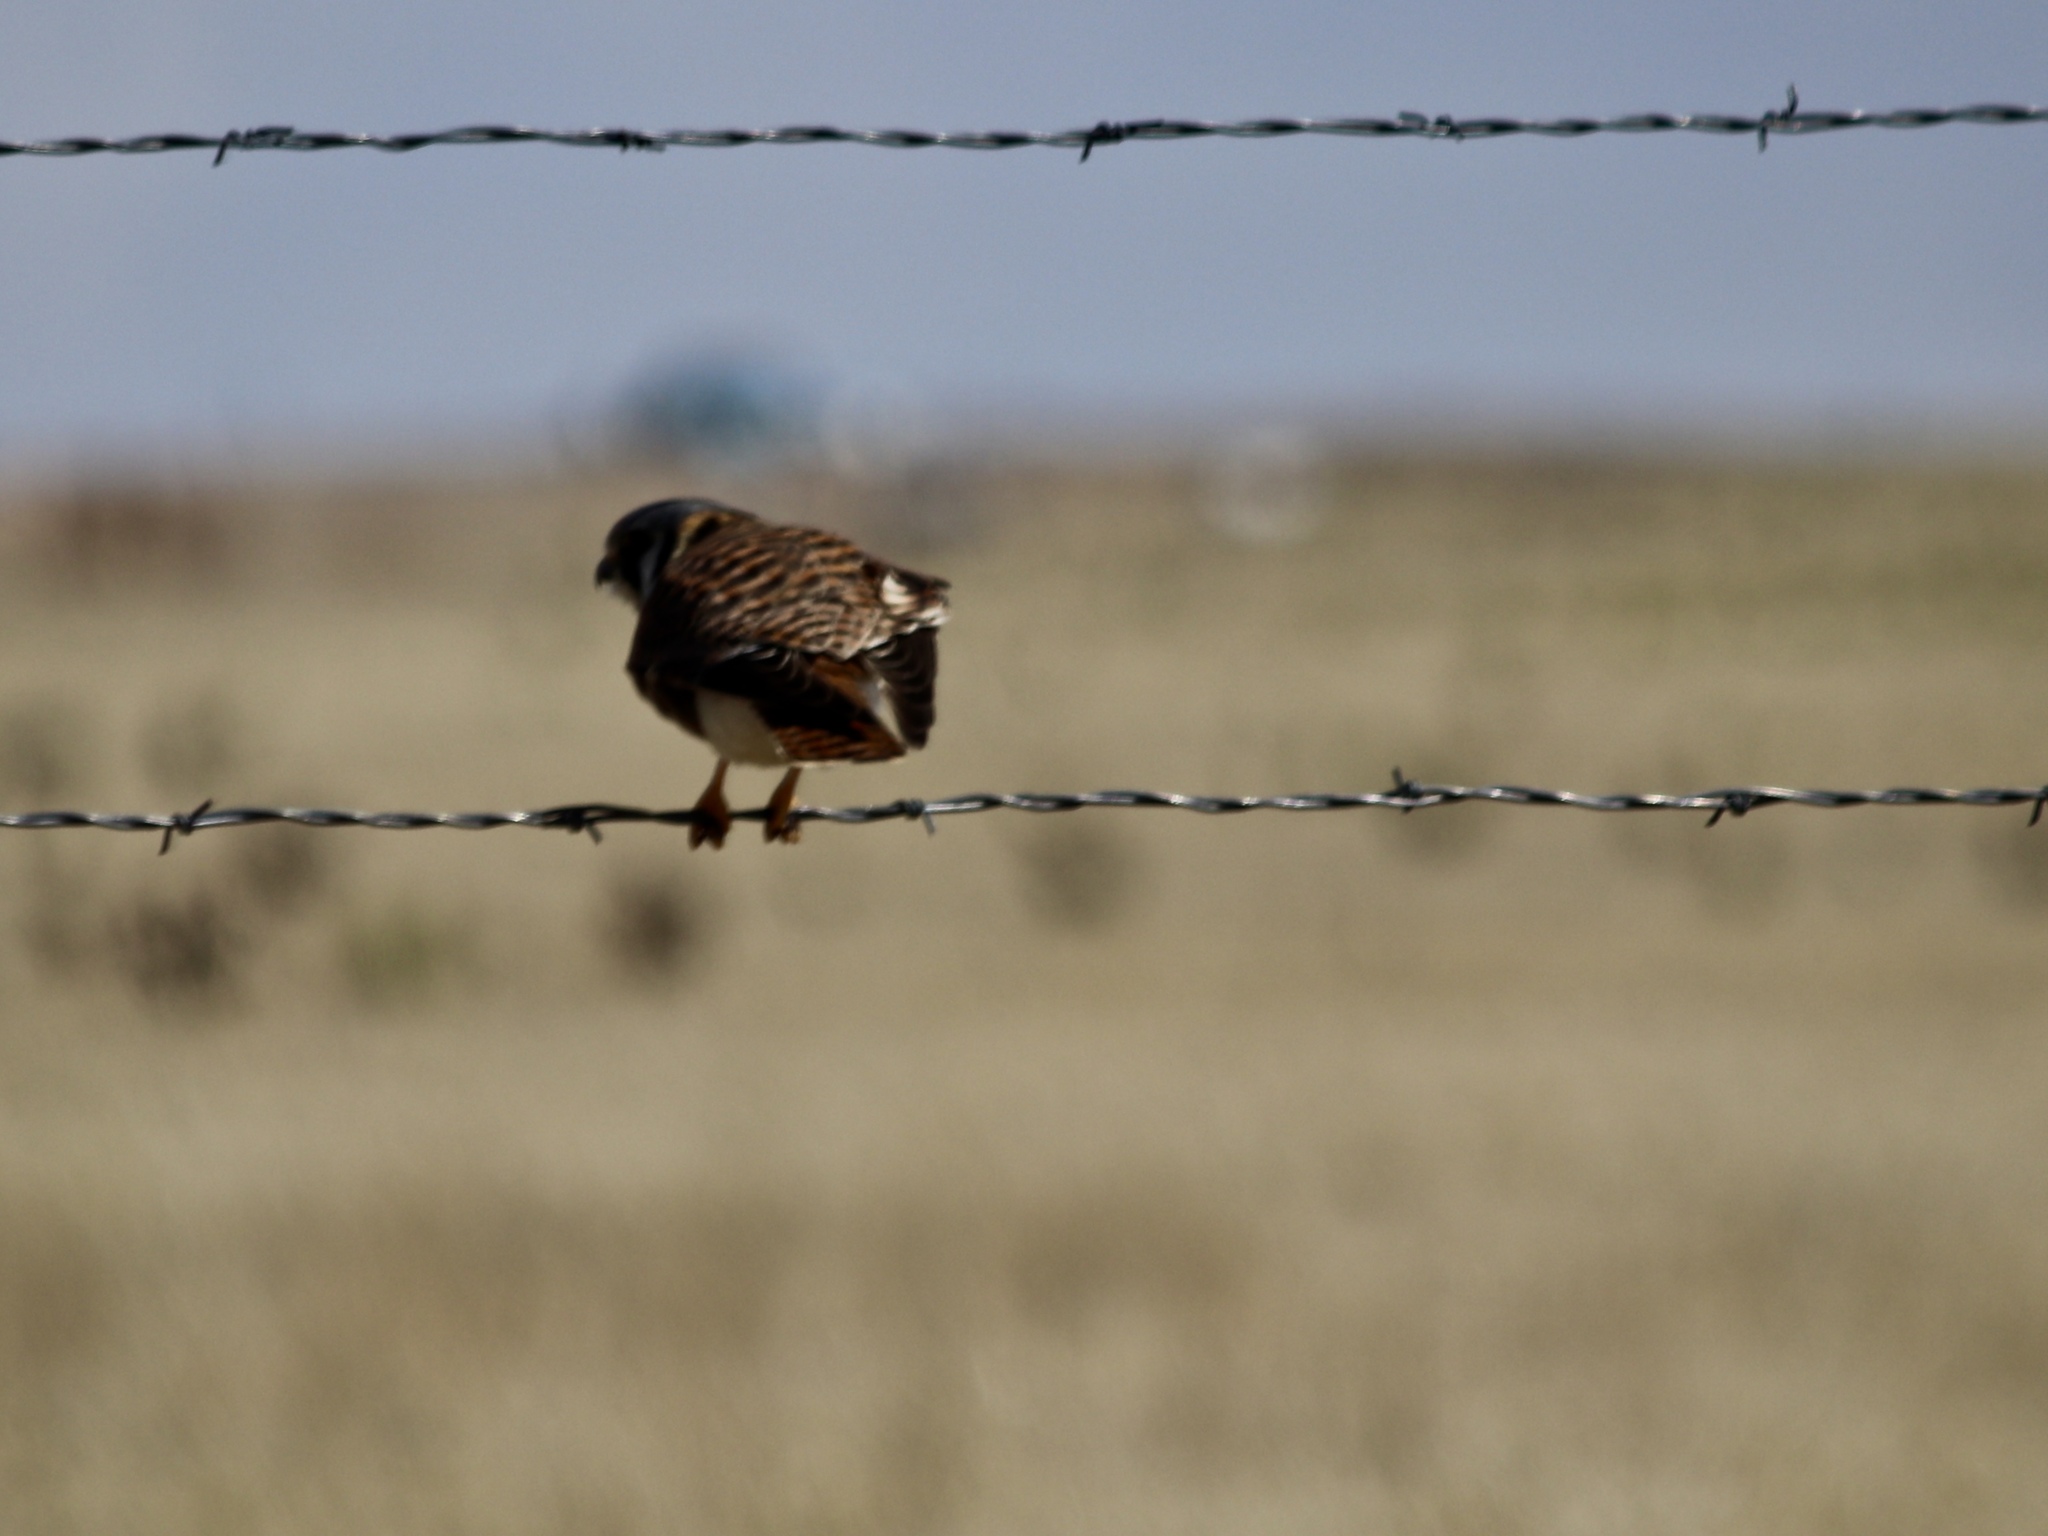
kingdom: Animalia
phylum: Chordata
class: Aves
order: Falconiformes
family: Falconidae
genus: Falco
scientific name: Falco sparverius
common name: American kestrel
